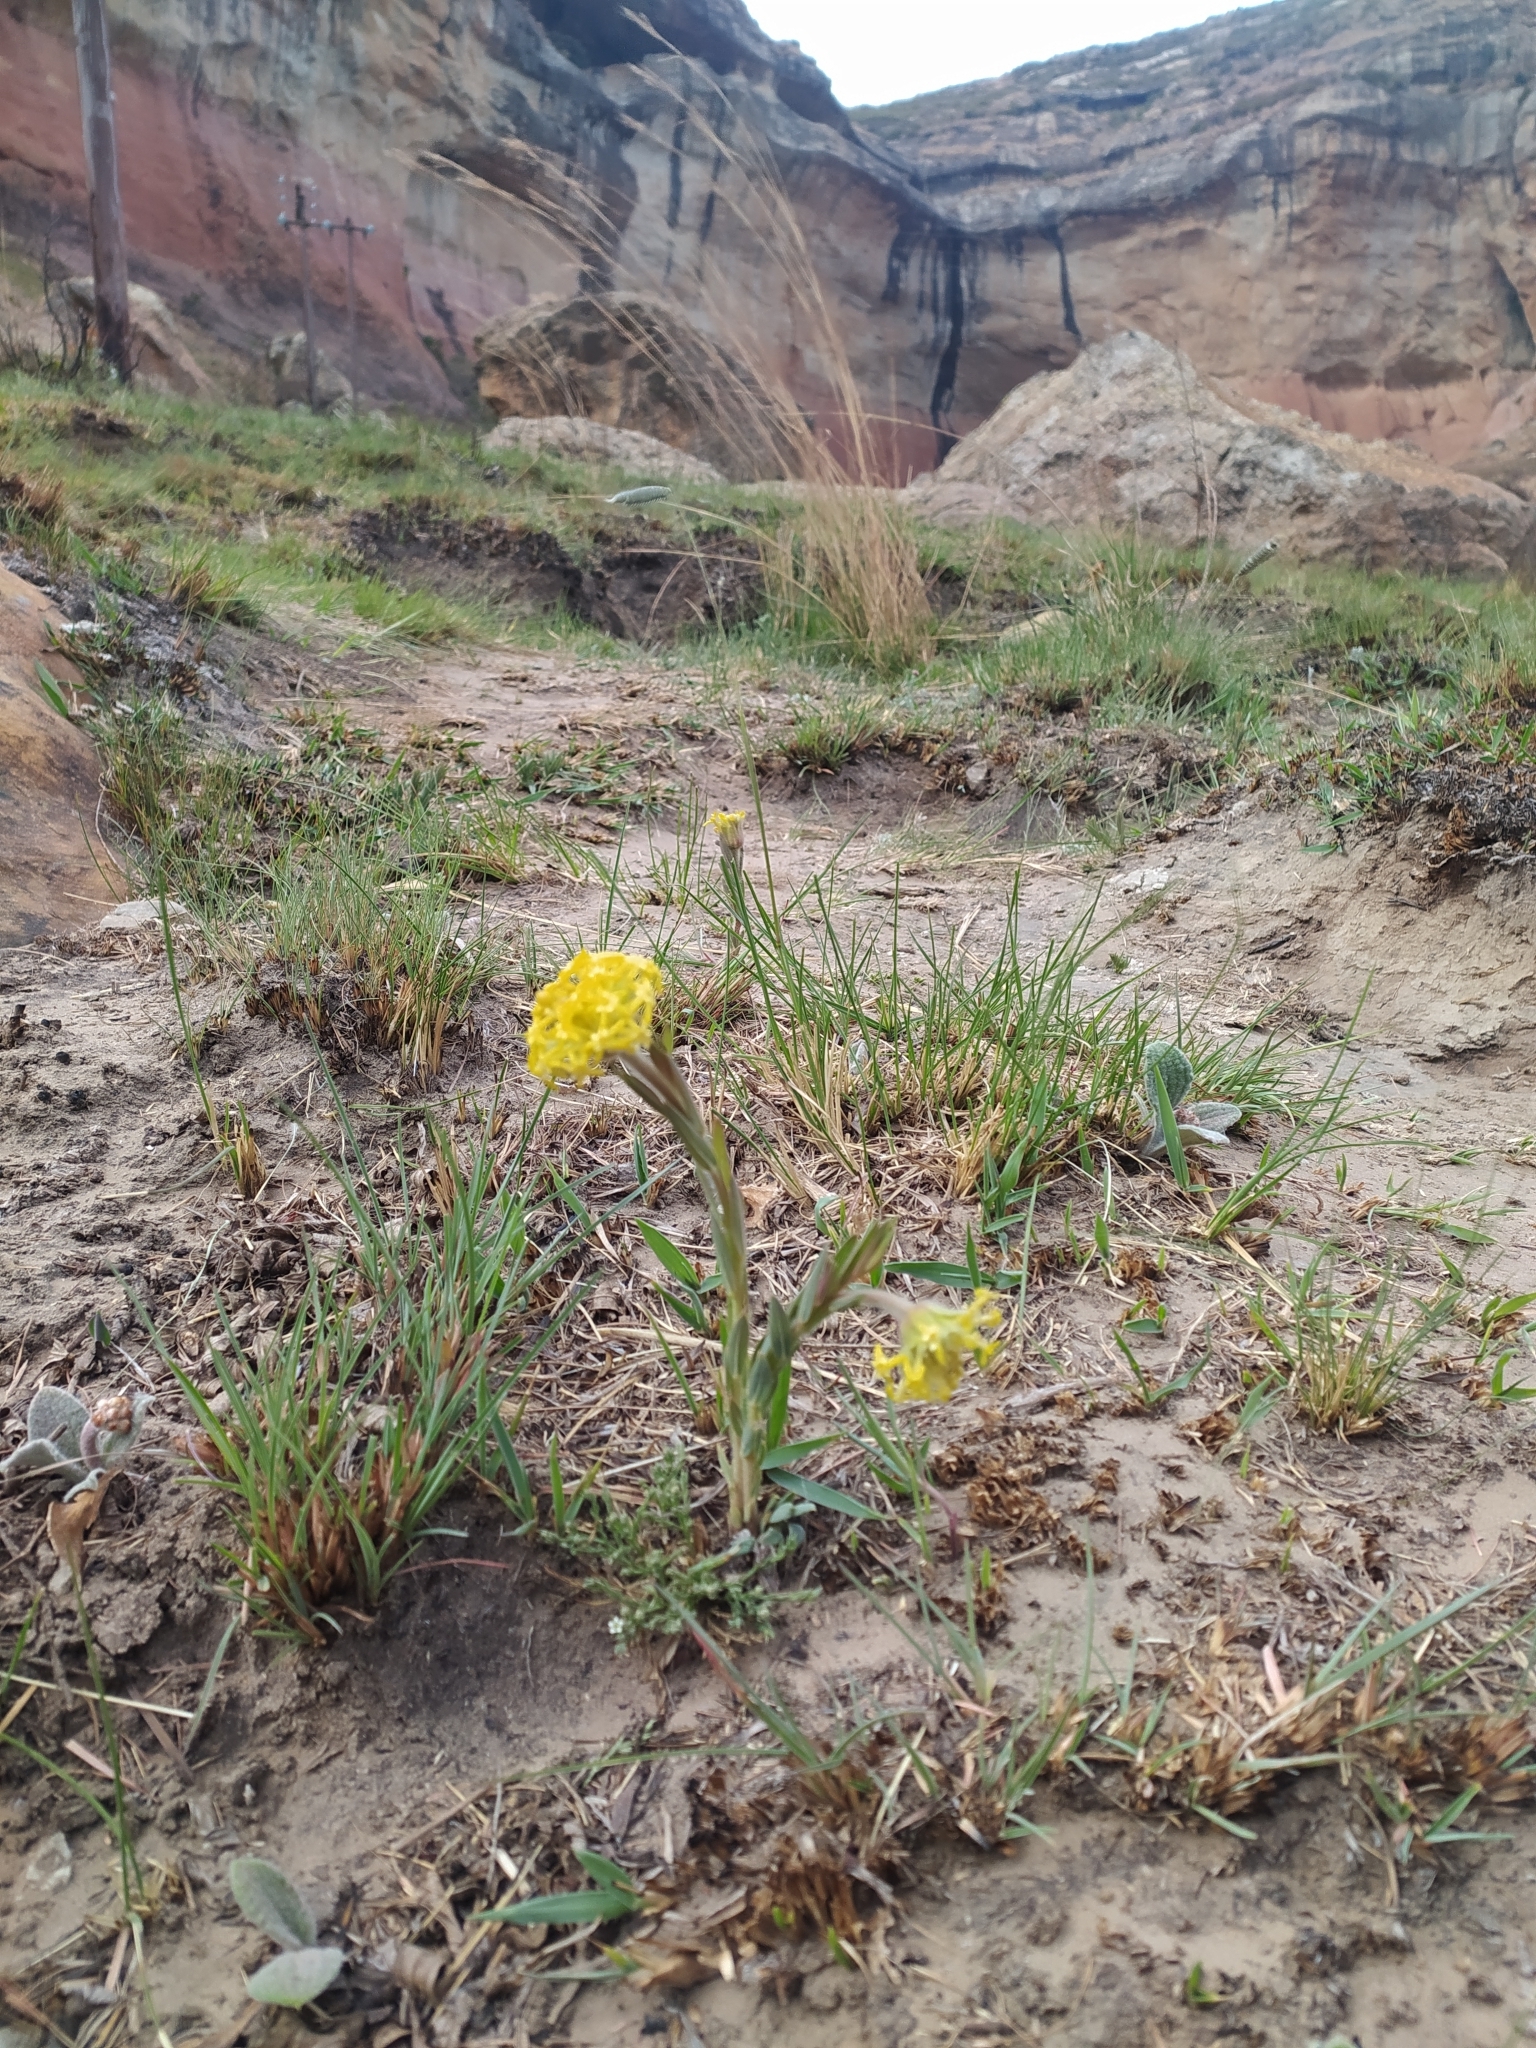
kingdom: Plantae
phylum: Tracheophyta
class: Magnoliopsida
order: Malvales
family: Thymelaeaceae
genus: Gnidia
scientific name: Gnidia kraussiana
